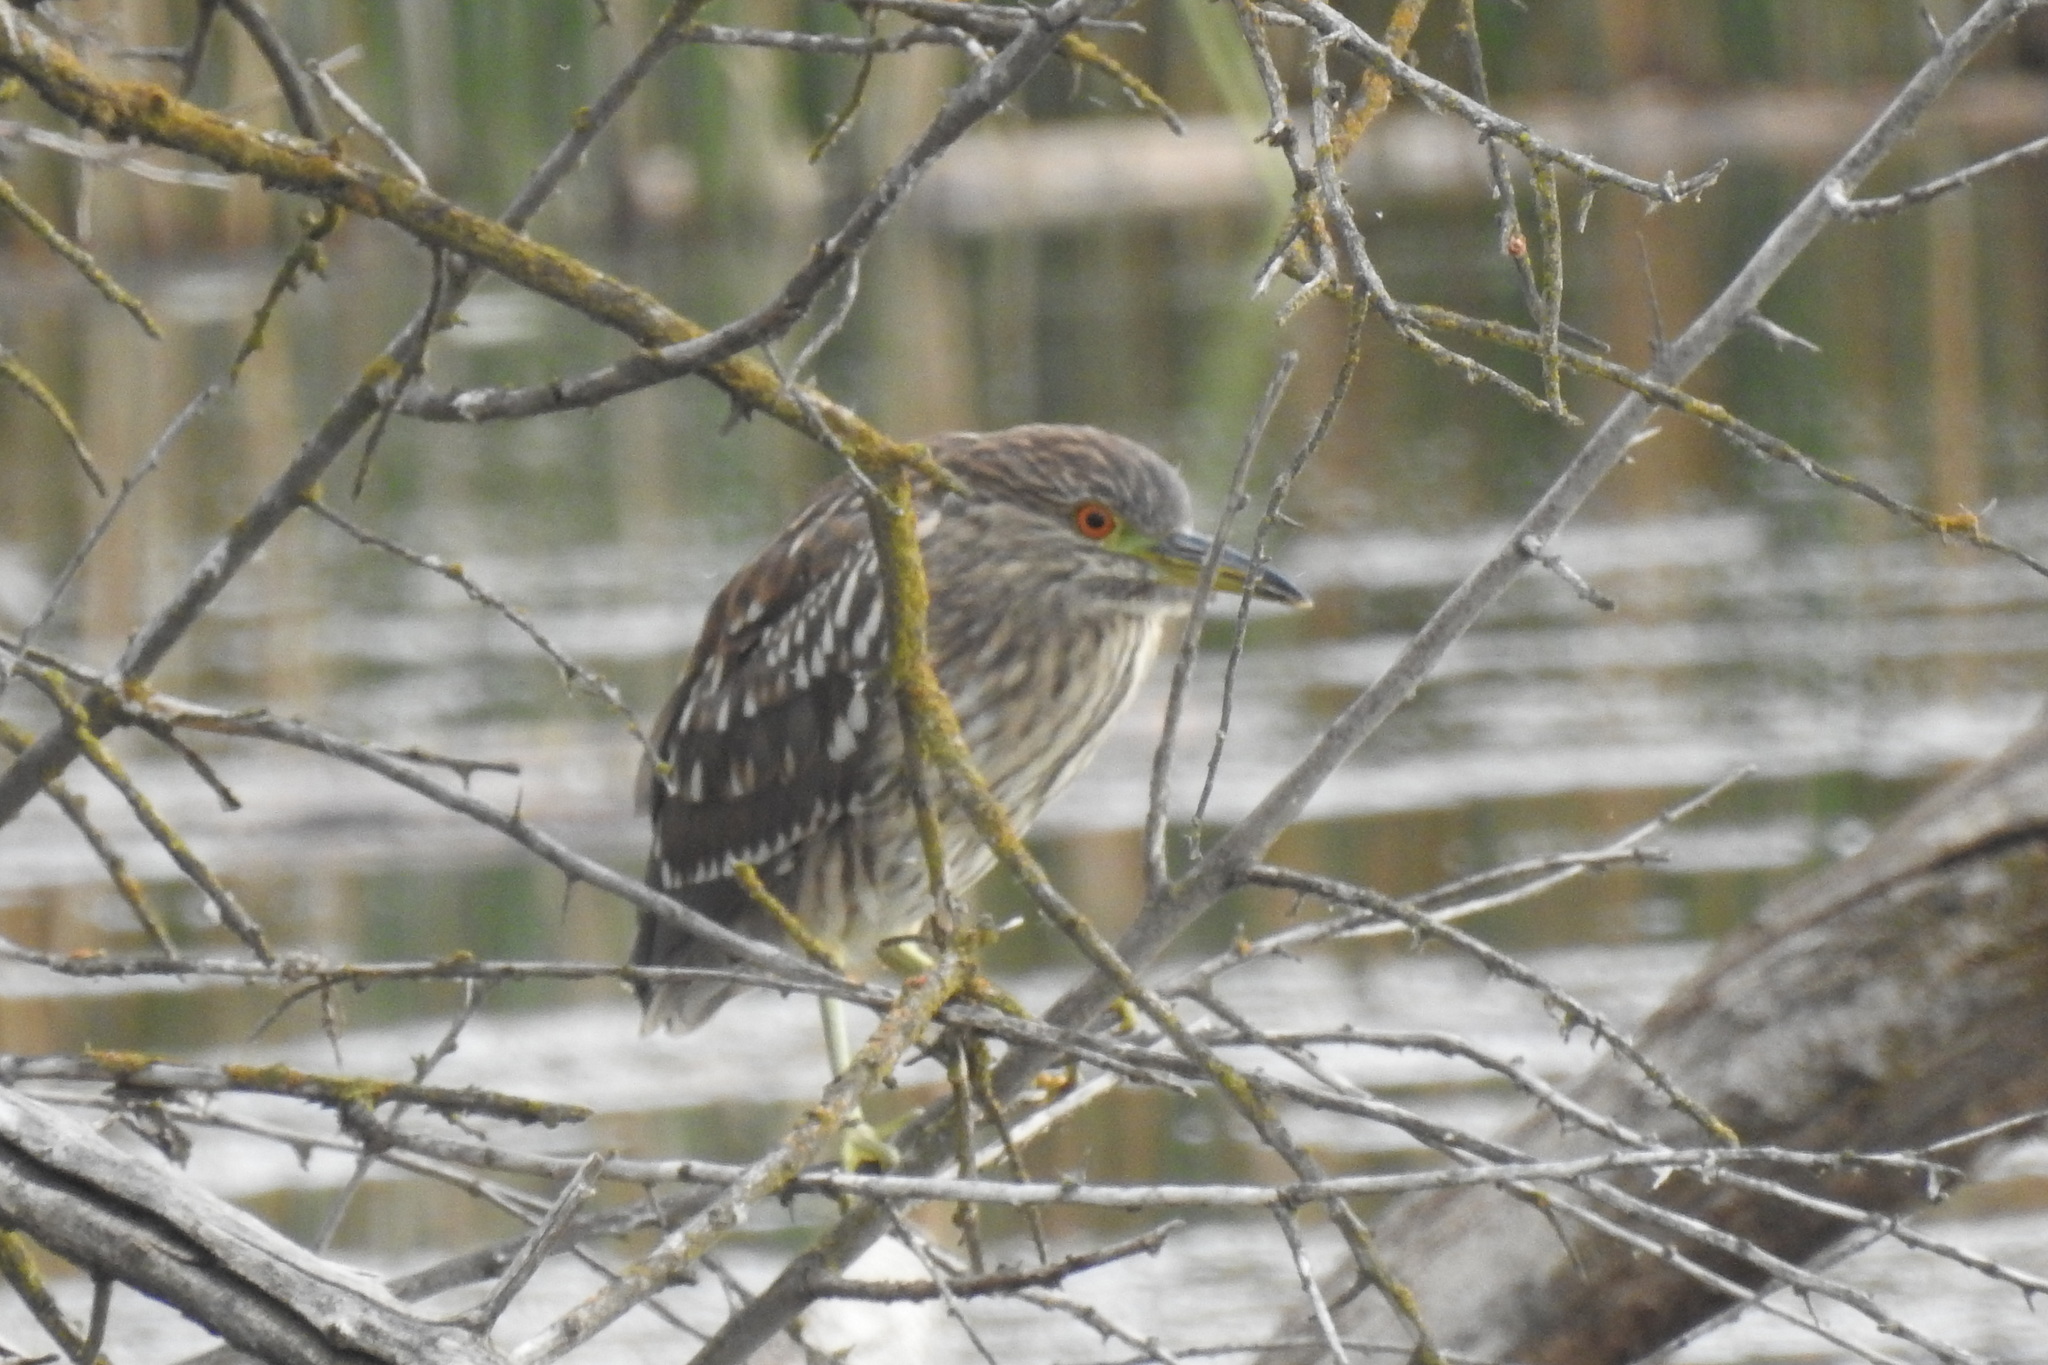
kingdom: Animalia
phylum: Chordata
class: Aves
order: Pelecaniformes
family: Ardeidae
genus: Nycticorax
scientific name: Nycticorax nycticorax
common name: Black-crowned night heron
